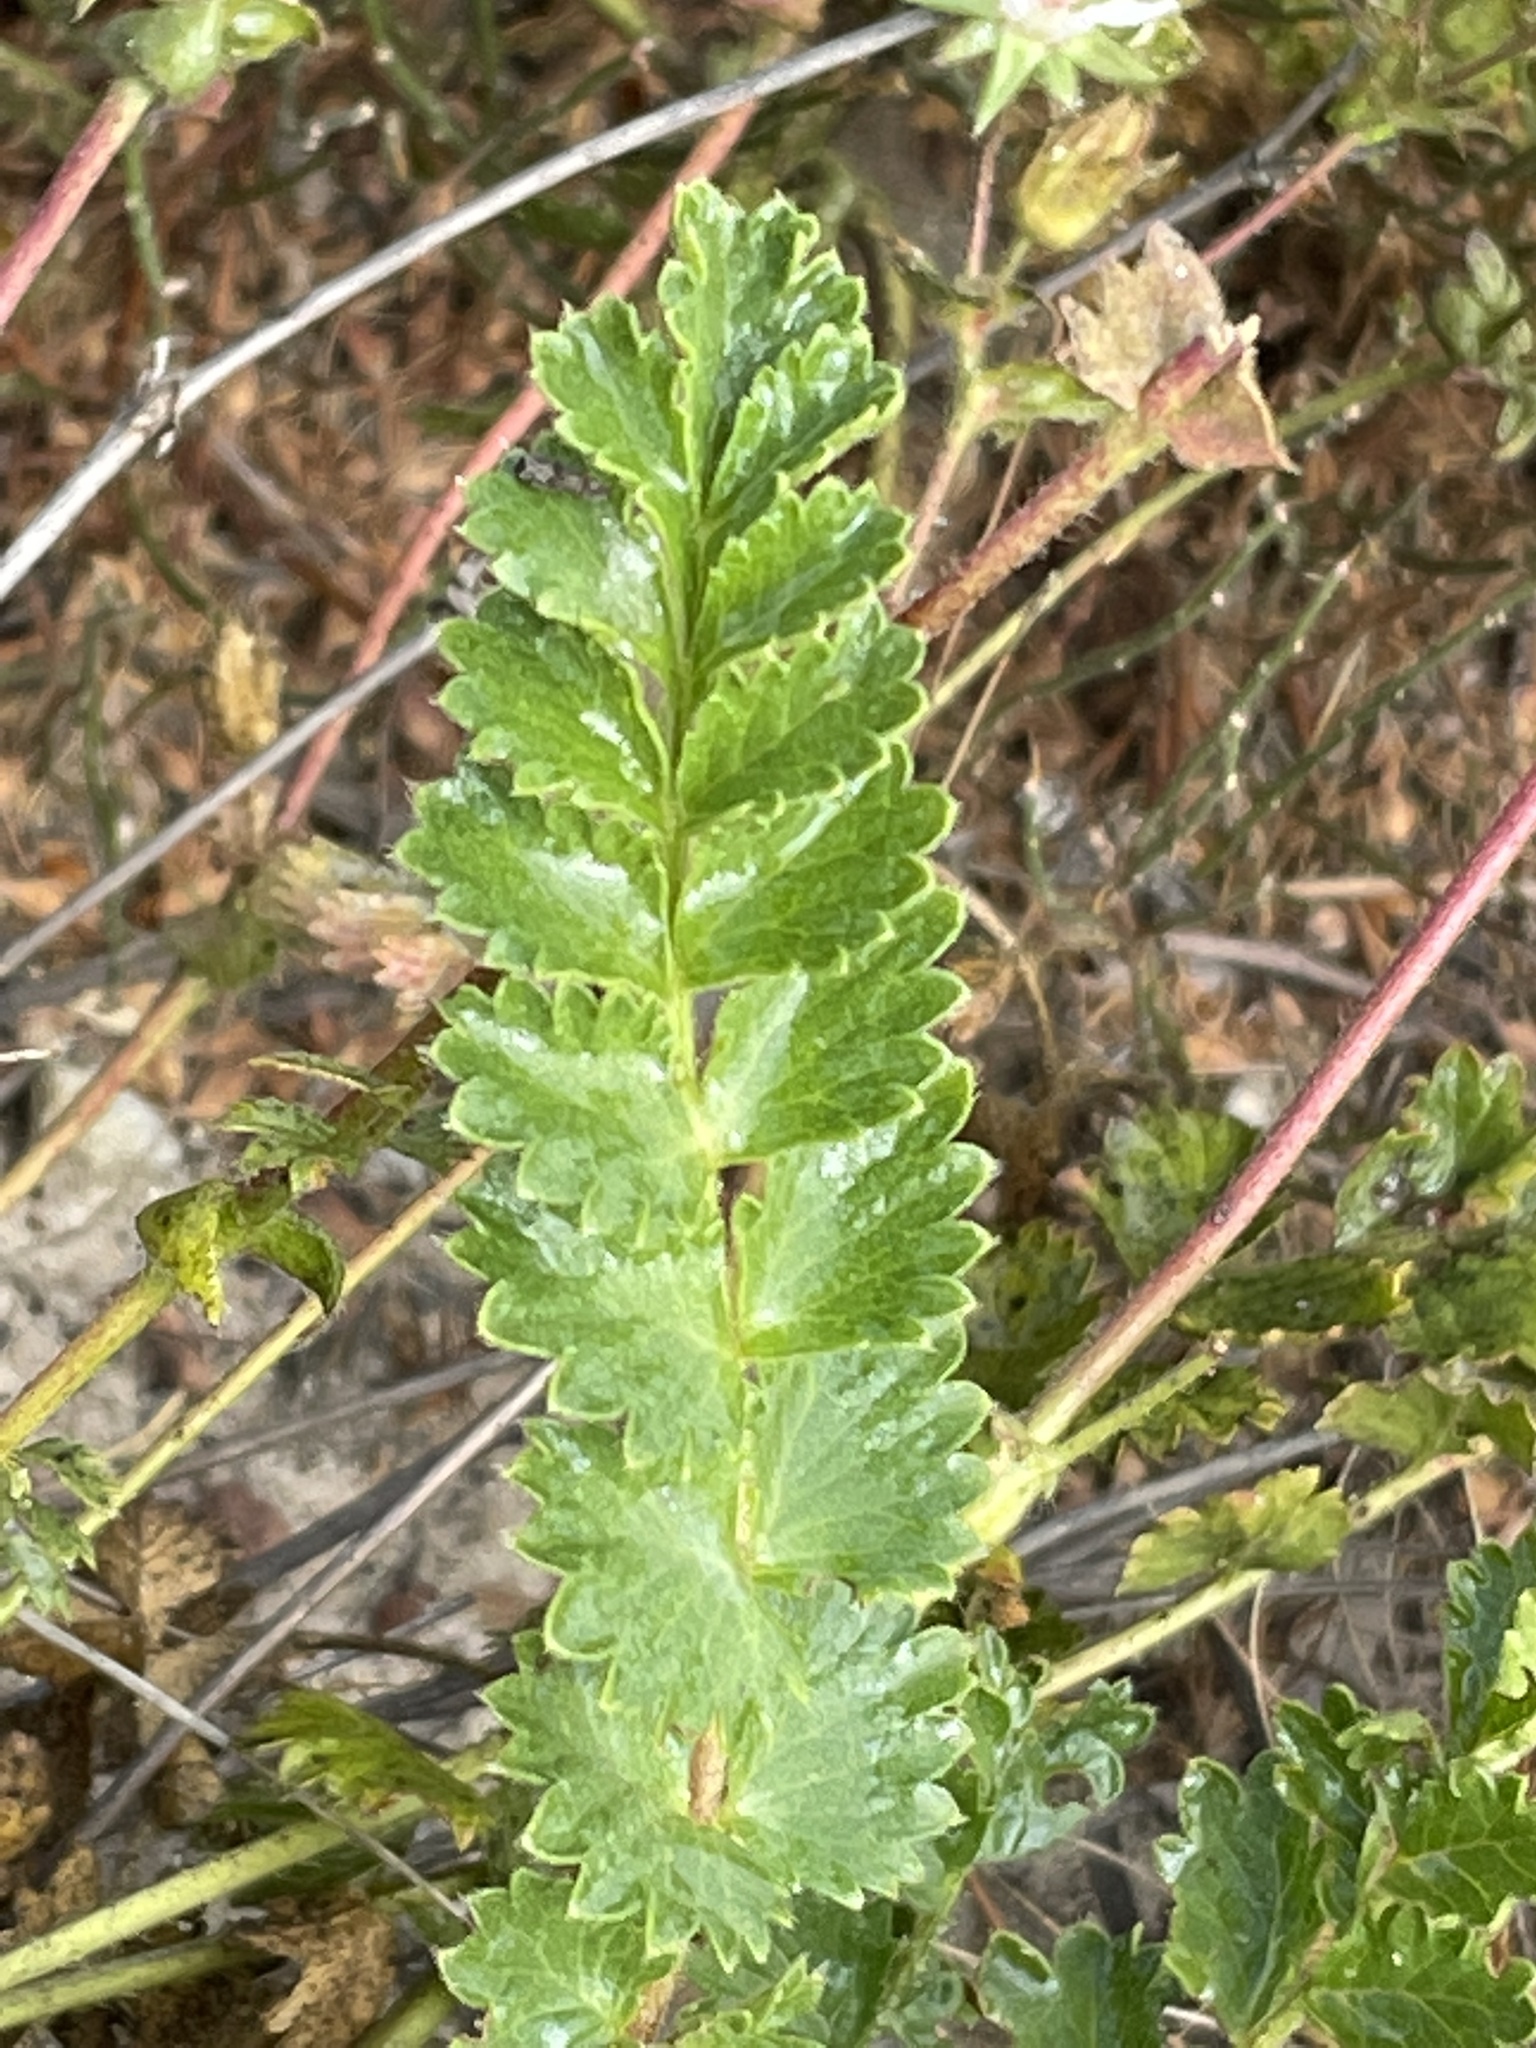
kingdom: Plantae
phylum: Tracheophyta
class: Magnoliopsida
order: Rosales
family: Rosaceae
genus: Potentilla
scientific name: Potentilla
